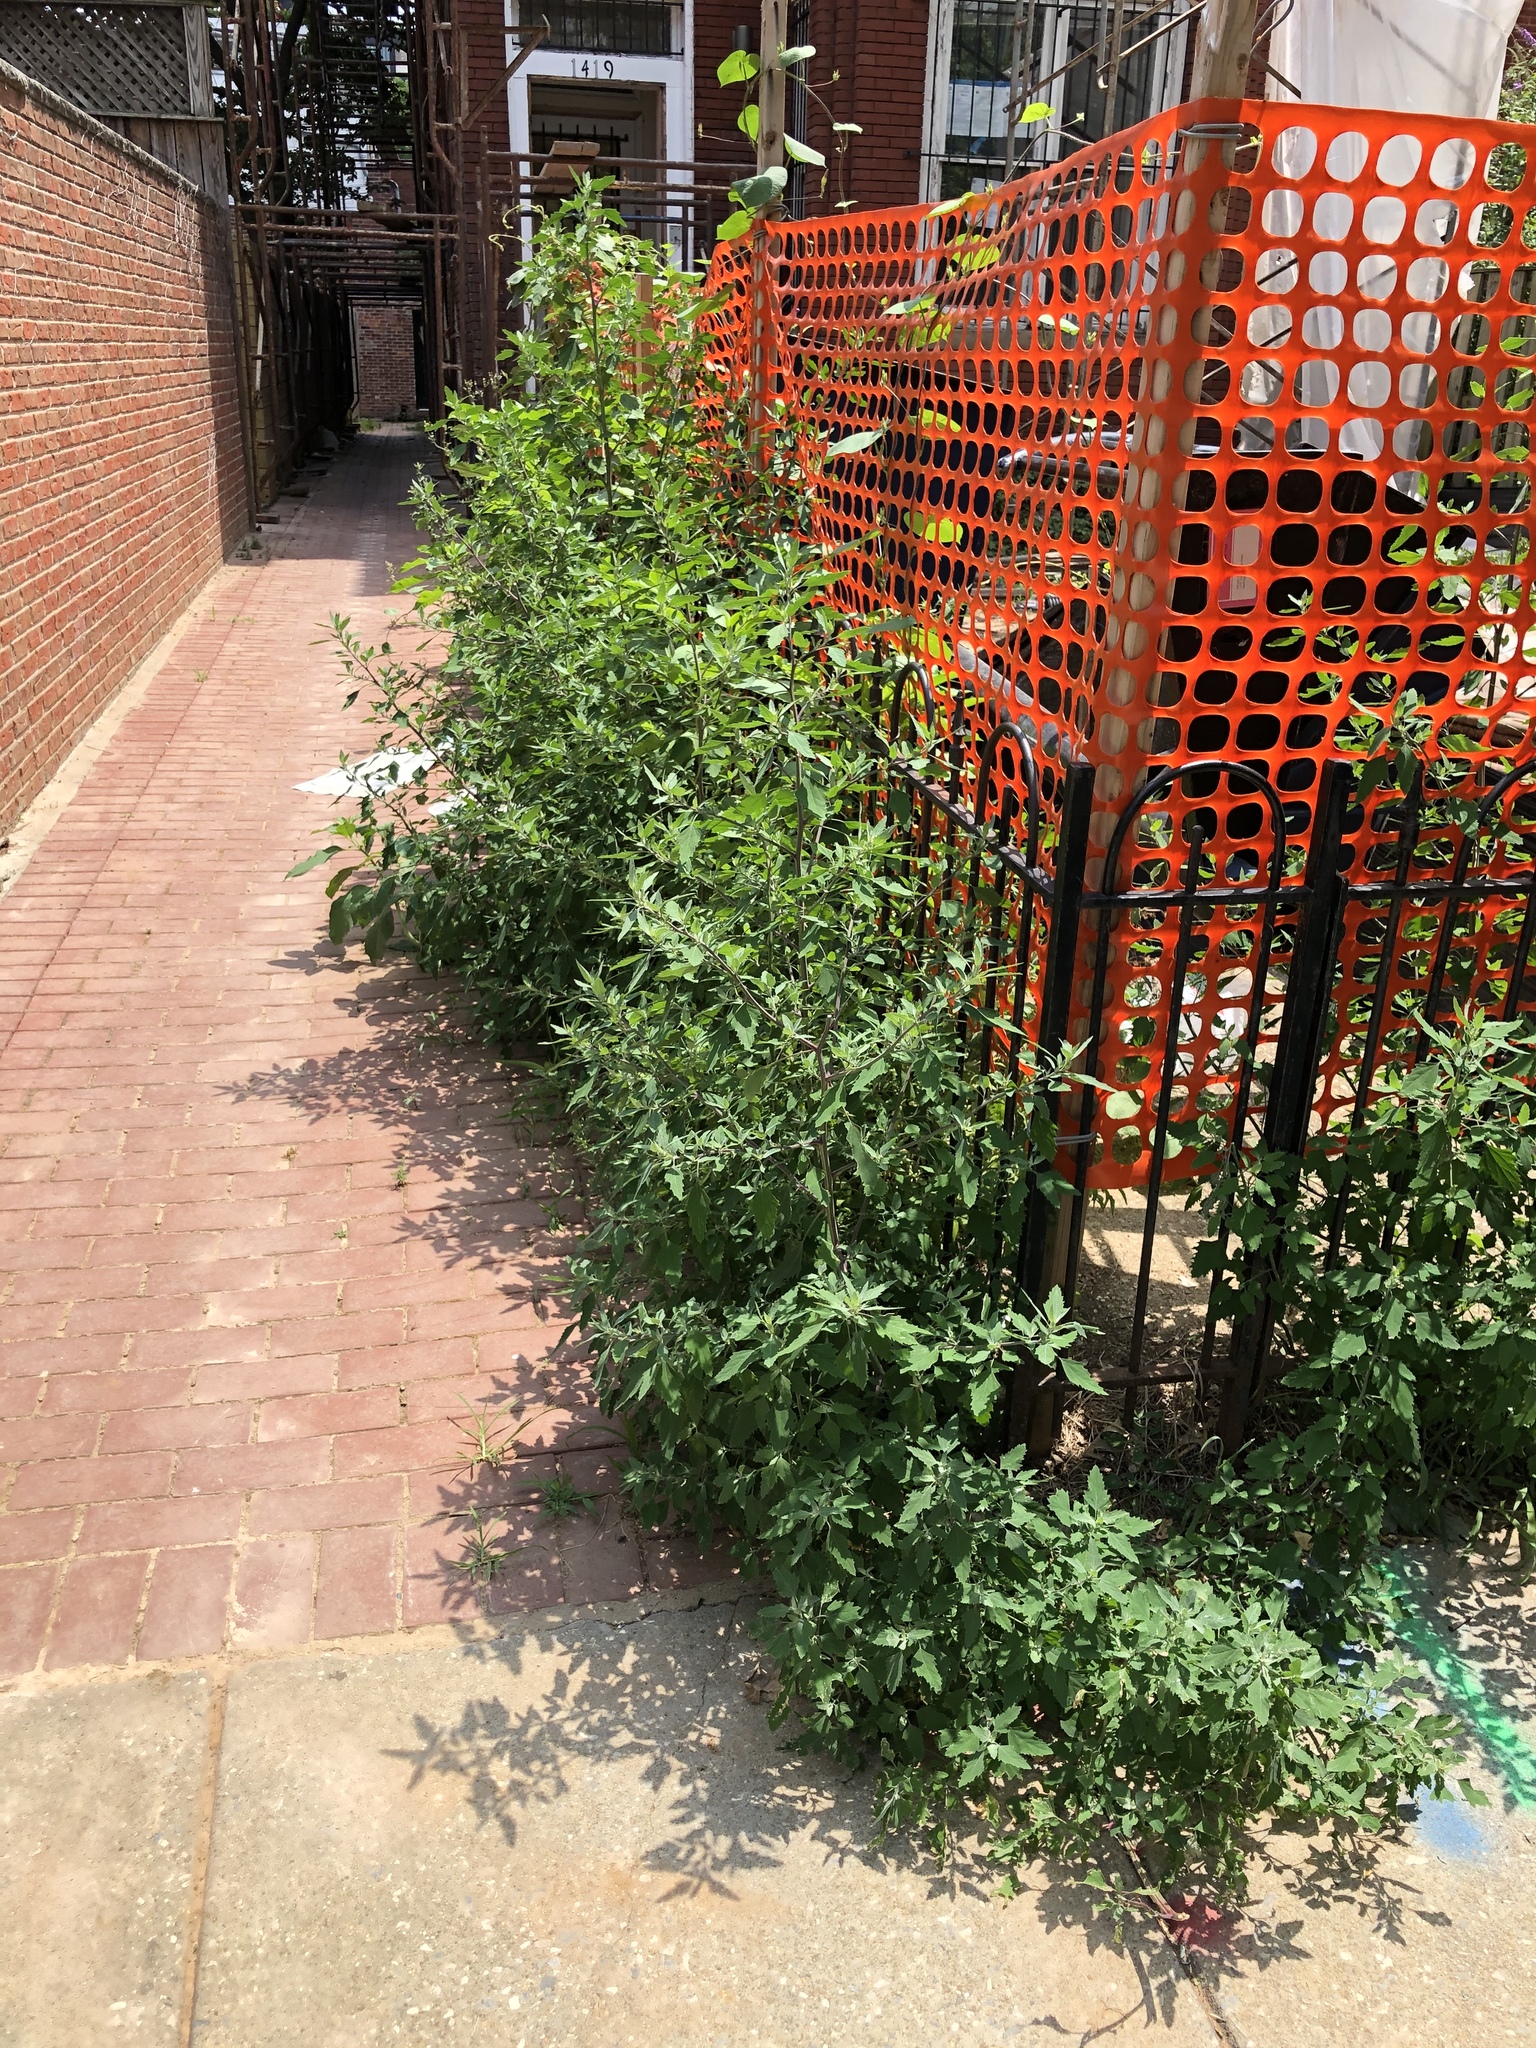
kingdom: Plantae
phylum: Tracheophyta
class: Magnoliopsida
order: Caryophyllales
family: Amaranthaceae
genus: Chenopodium
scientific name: Chenopodium album
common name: Fat-hen
